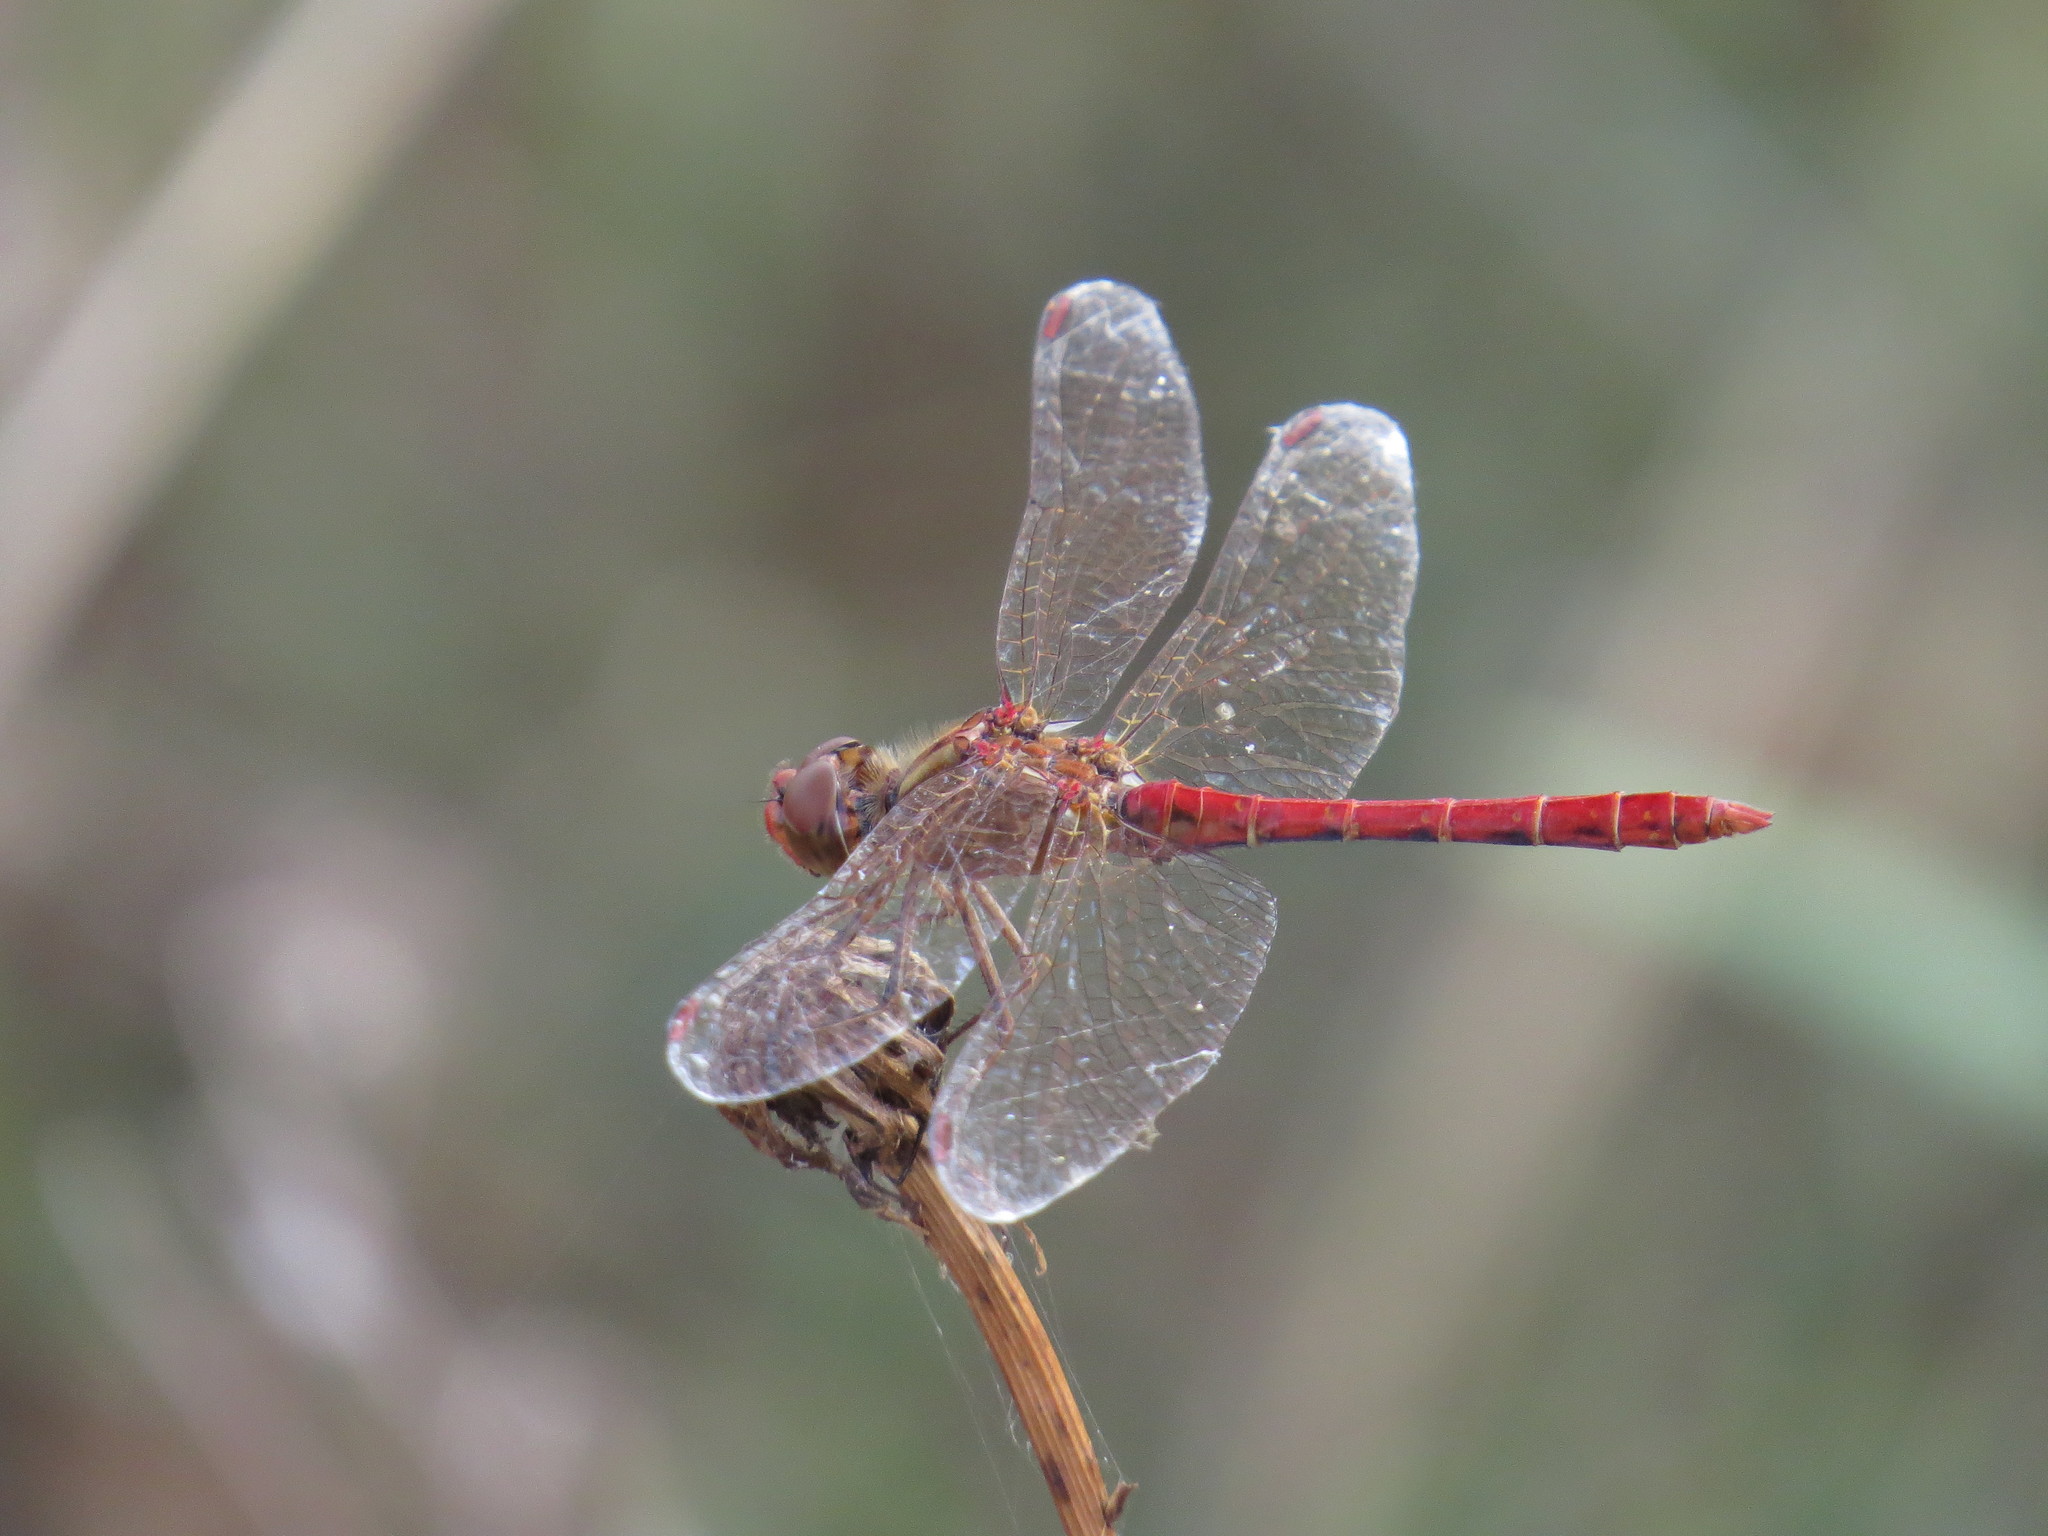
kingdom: Animalia
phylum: Arthropoda
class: Insecta
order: Odonata
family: Libellulidae
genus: Sympetrum
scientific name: Sympetrum meridionale
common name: Southern darter
